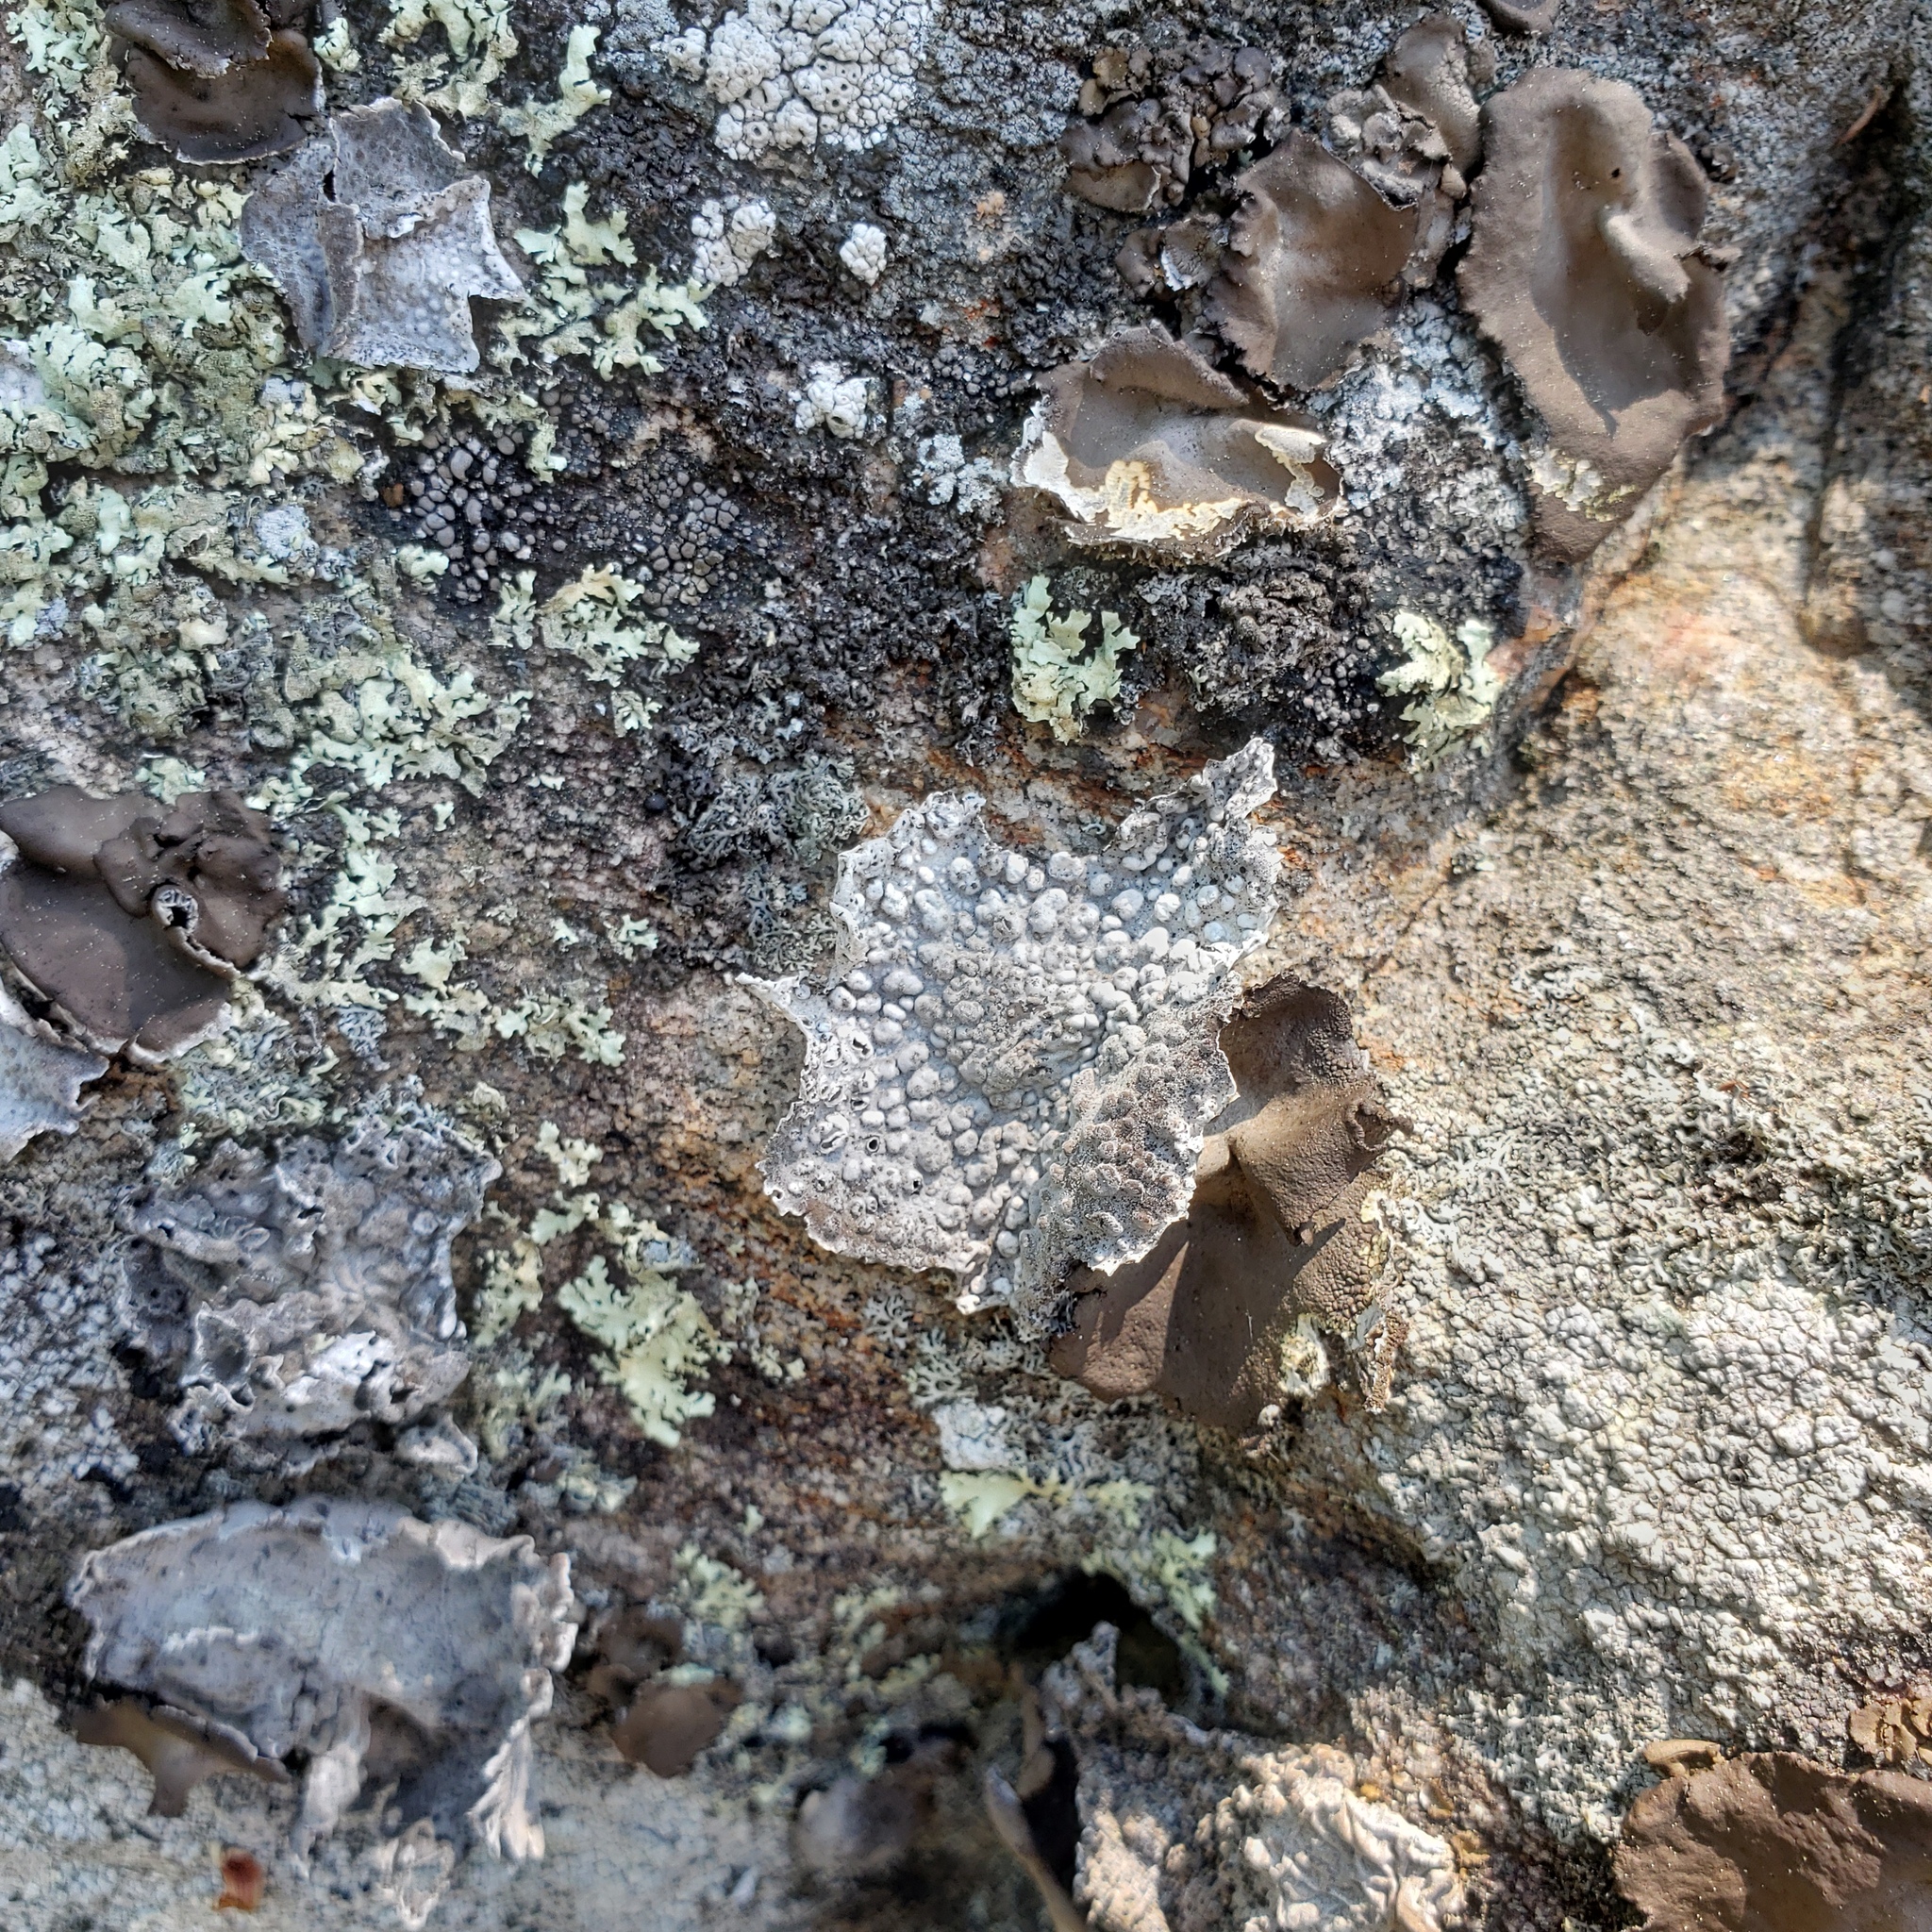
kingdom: Fungi
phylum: Ascomycota
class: Lecanoromycetes
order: Umbilicariales
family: Umbilicariaceae
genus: Lasallia
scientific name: Lasallia papulosa
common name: Common toadskin lichen
